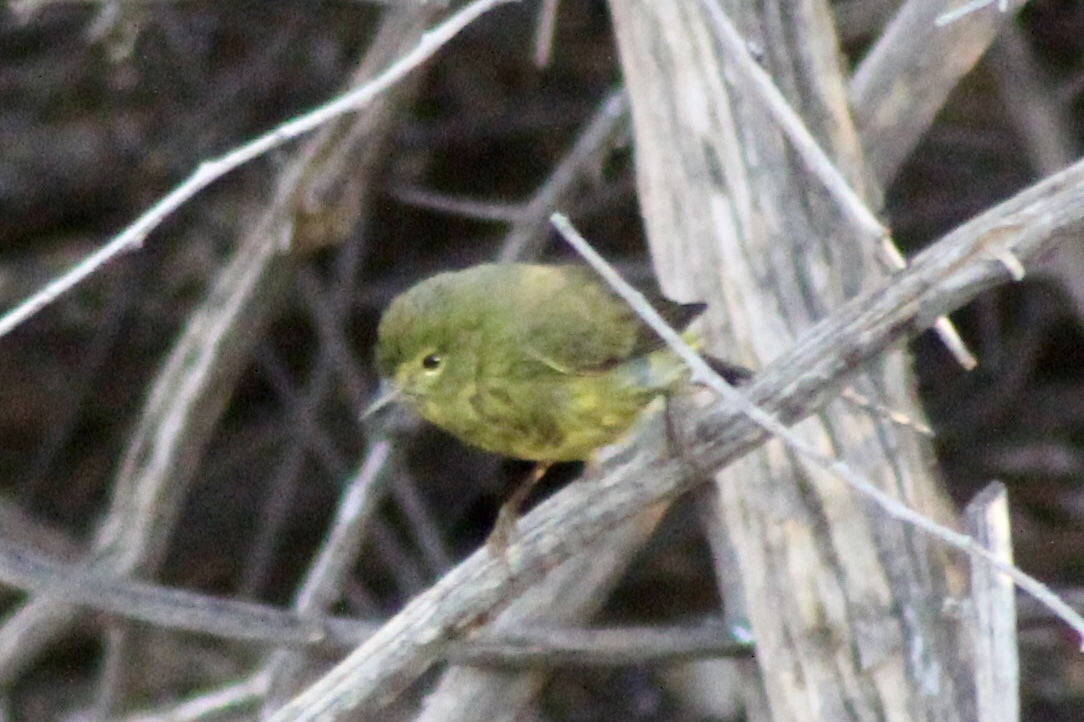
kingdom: Animalia
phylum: Chordata
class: Aves
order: Passeriformes
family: Parulidae
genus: Leiothlypis
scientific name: Leiothlypis celata
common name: Orange-crowned warbler
